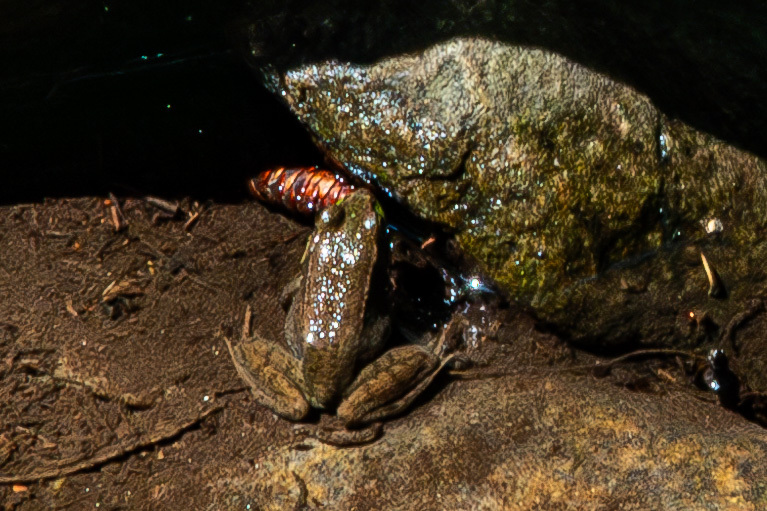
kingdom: Animalia
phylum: Chordata
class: Amphibia
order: Anura
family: Ranidae
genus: Lithobates
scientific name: Lithobates clamitans
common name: Green frog
